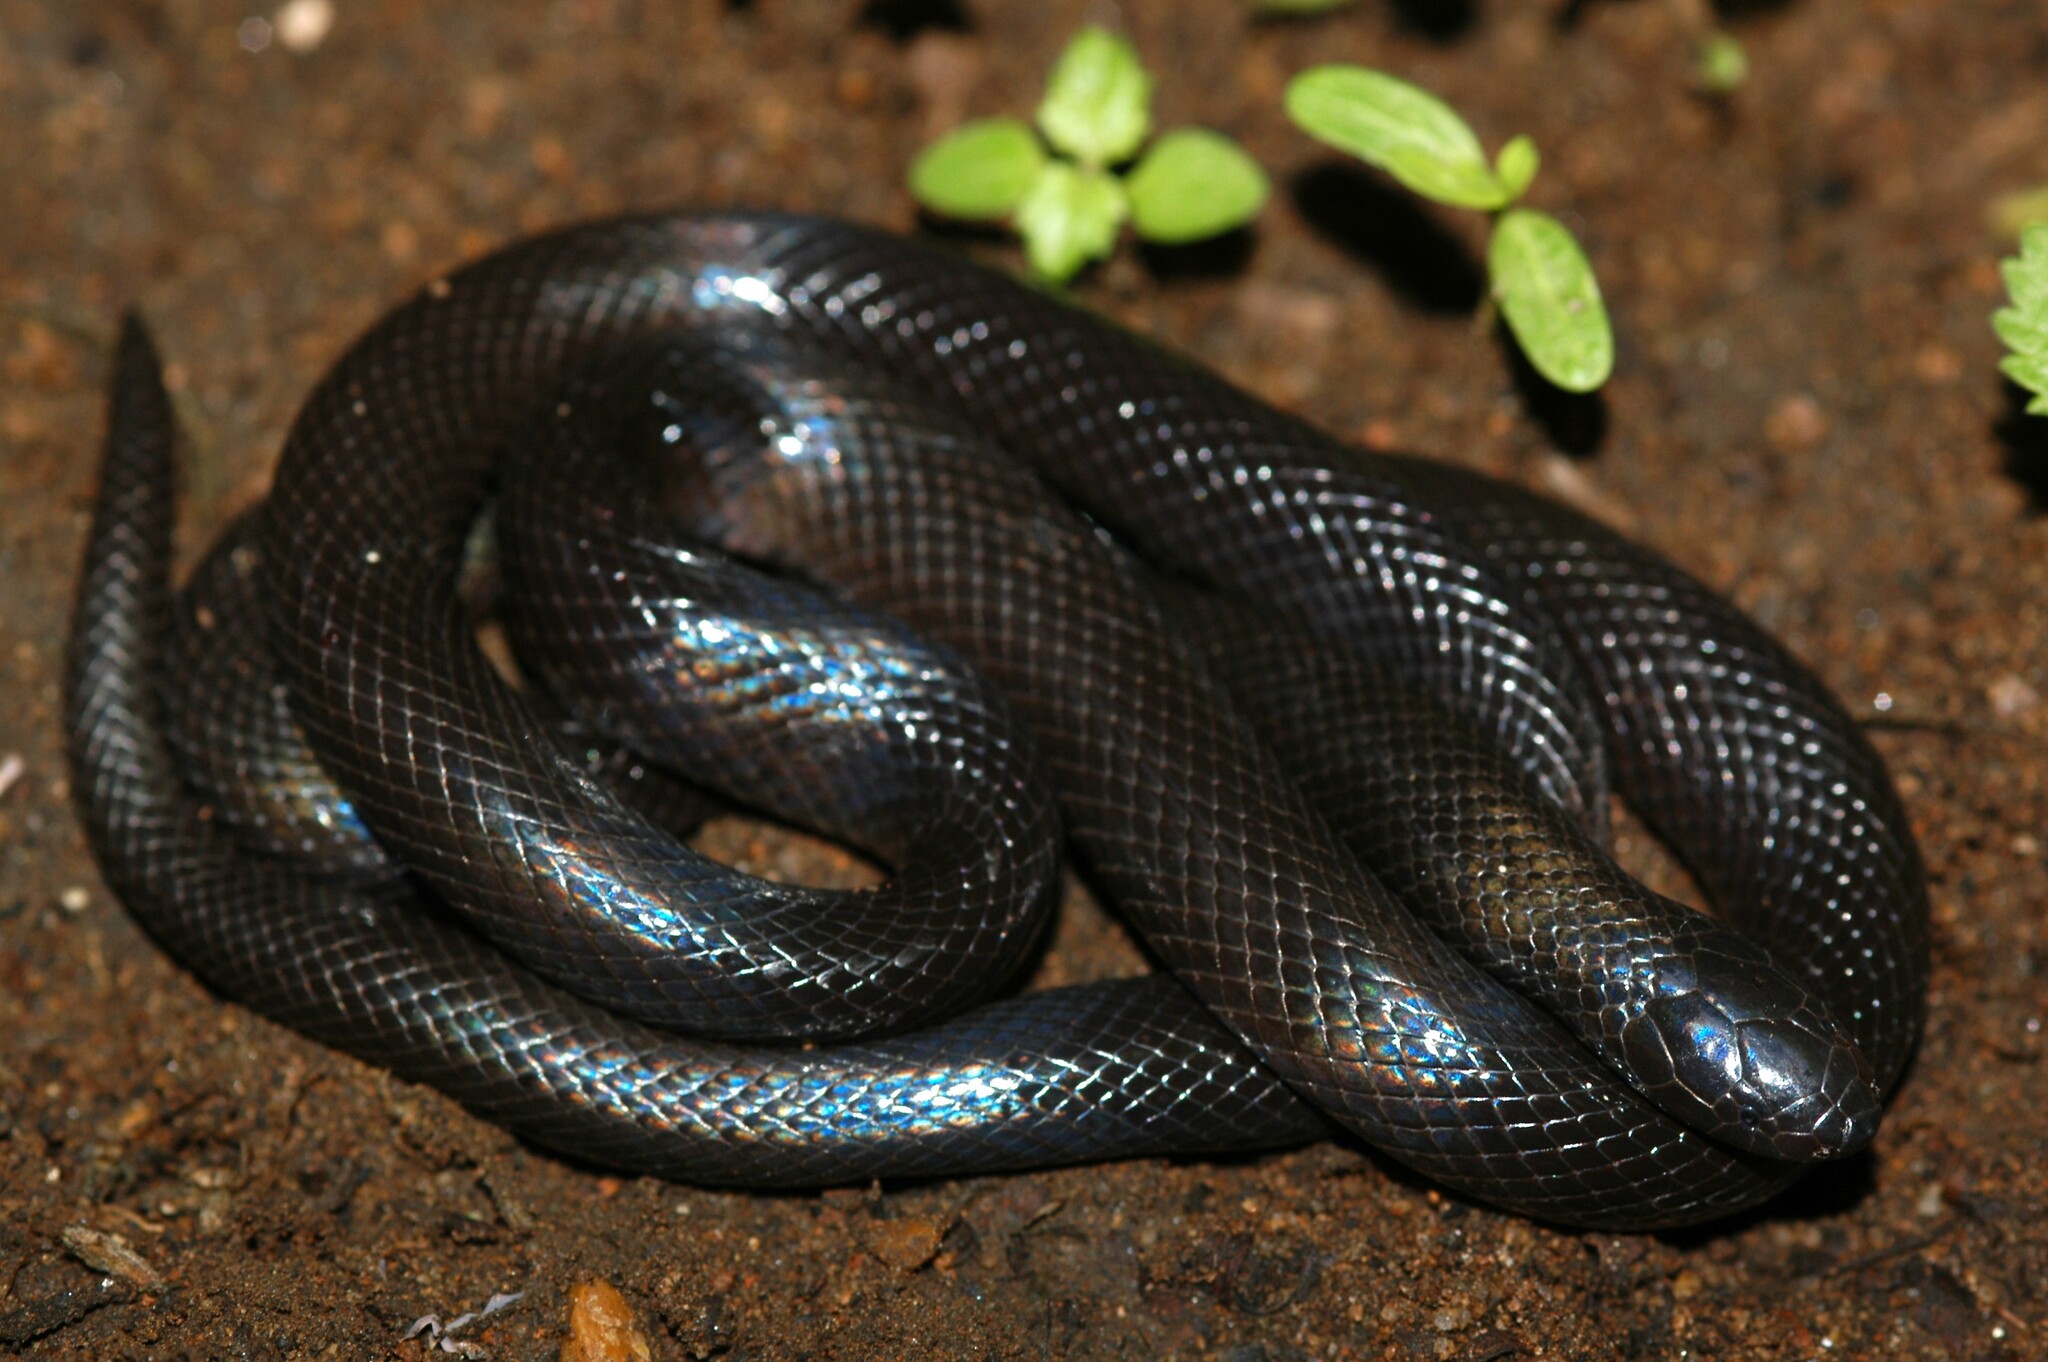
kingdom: Animalia
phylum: Chordata
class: Squamata
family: Atractaspididae
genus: Atractaspis
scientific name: Atractaspis bibronii
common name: Bibron's burrowing asp
